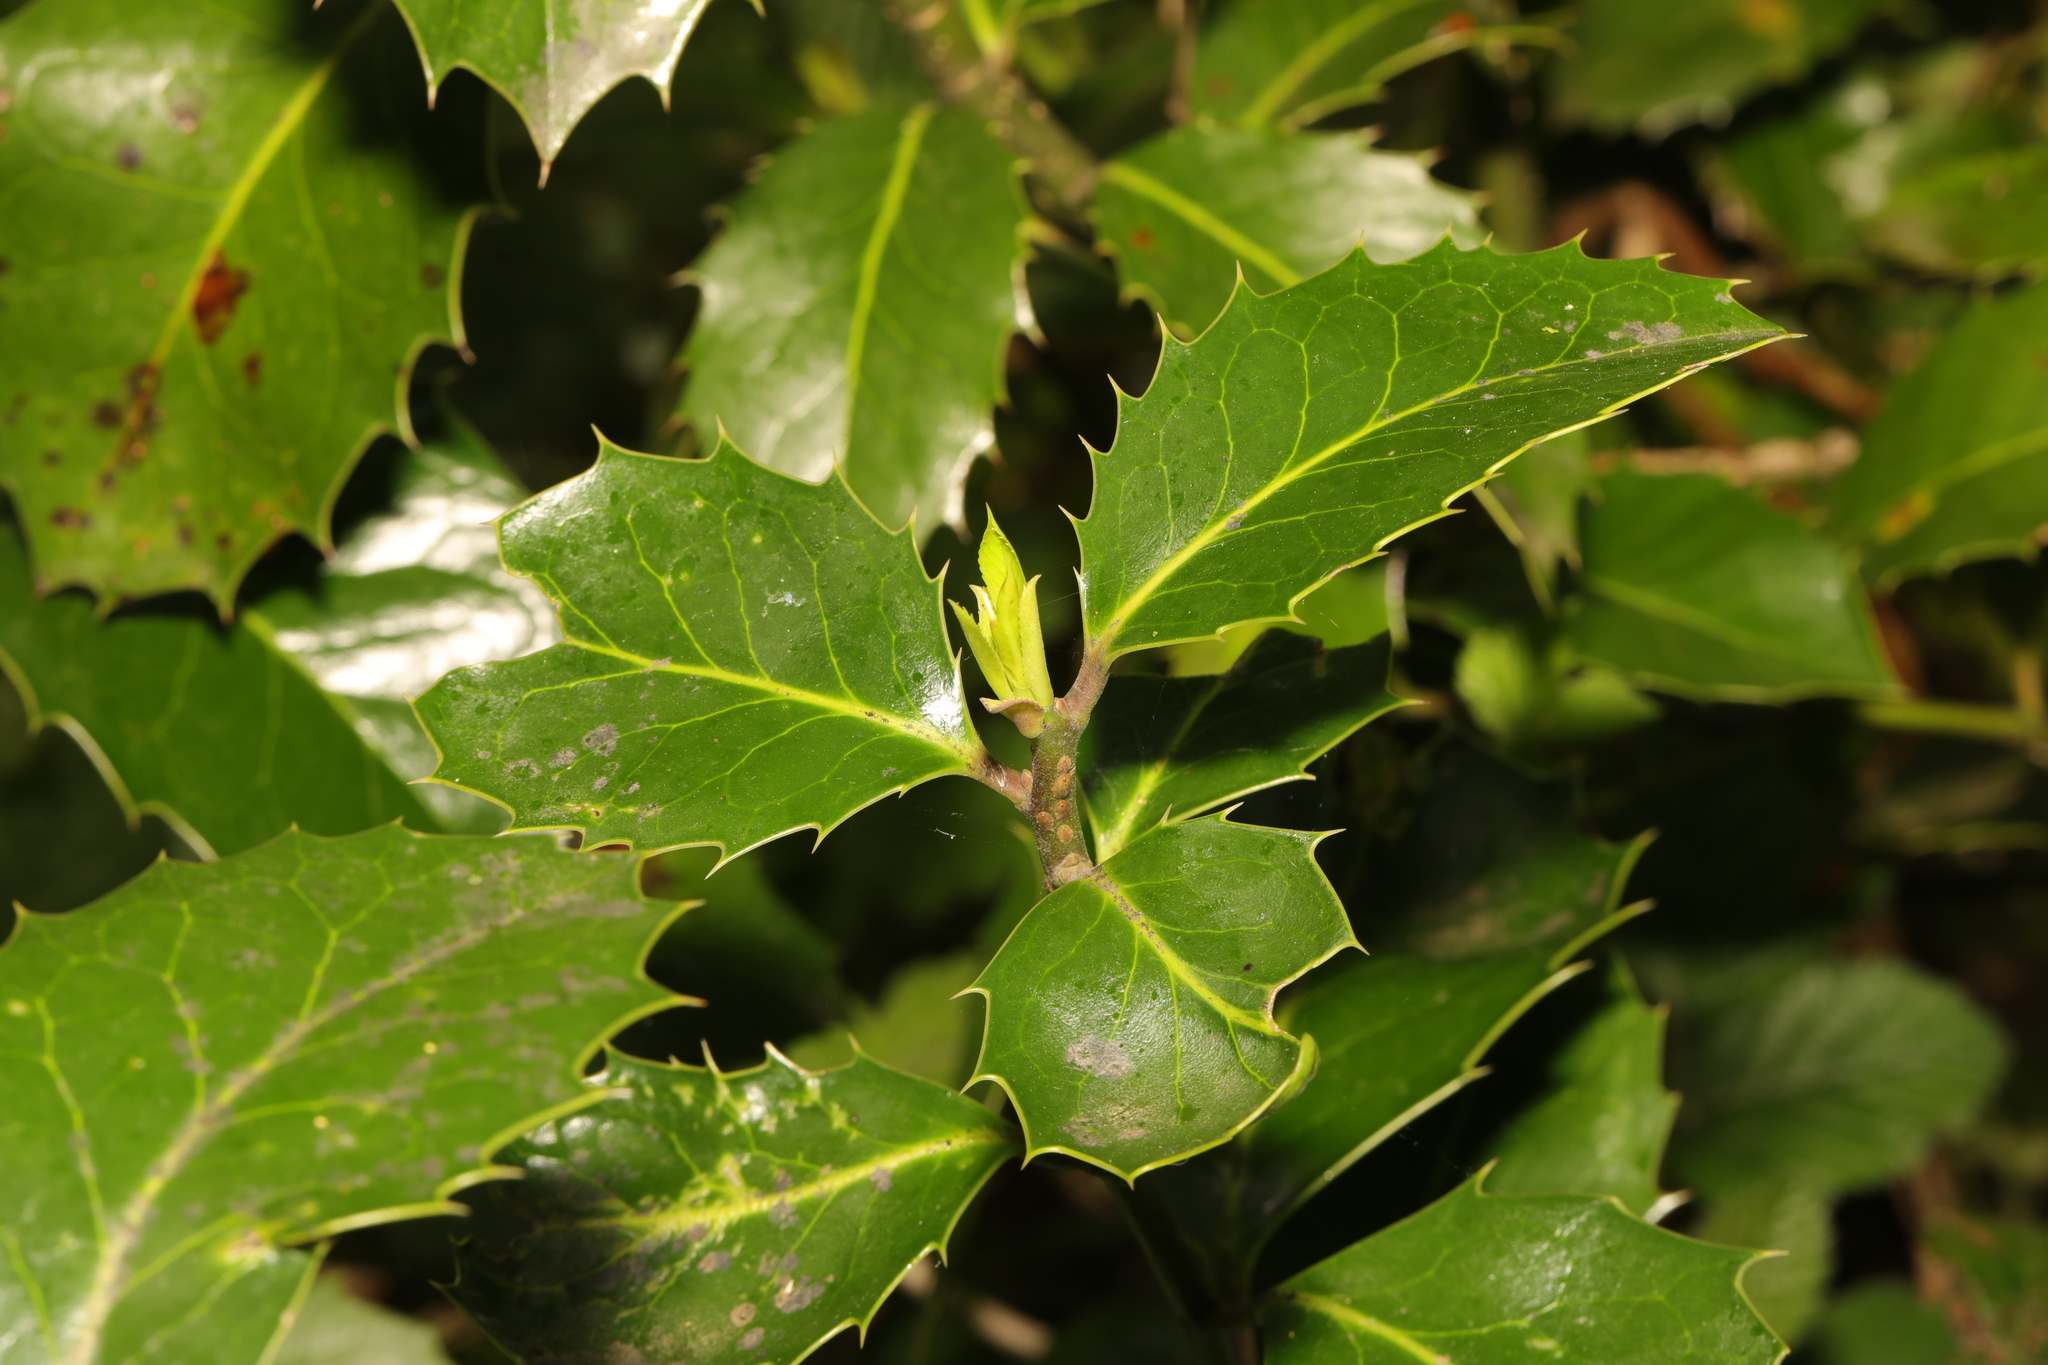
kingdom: Plantae
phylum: Tracheophyta
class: Magnoliopsida
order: Aquifoliales
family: Aquifoliaceae
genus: Ilex
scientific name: Ilex aquifolium
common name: English holly
